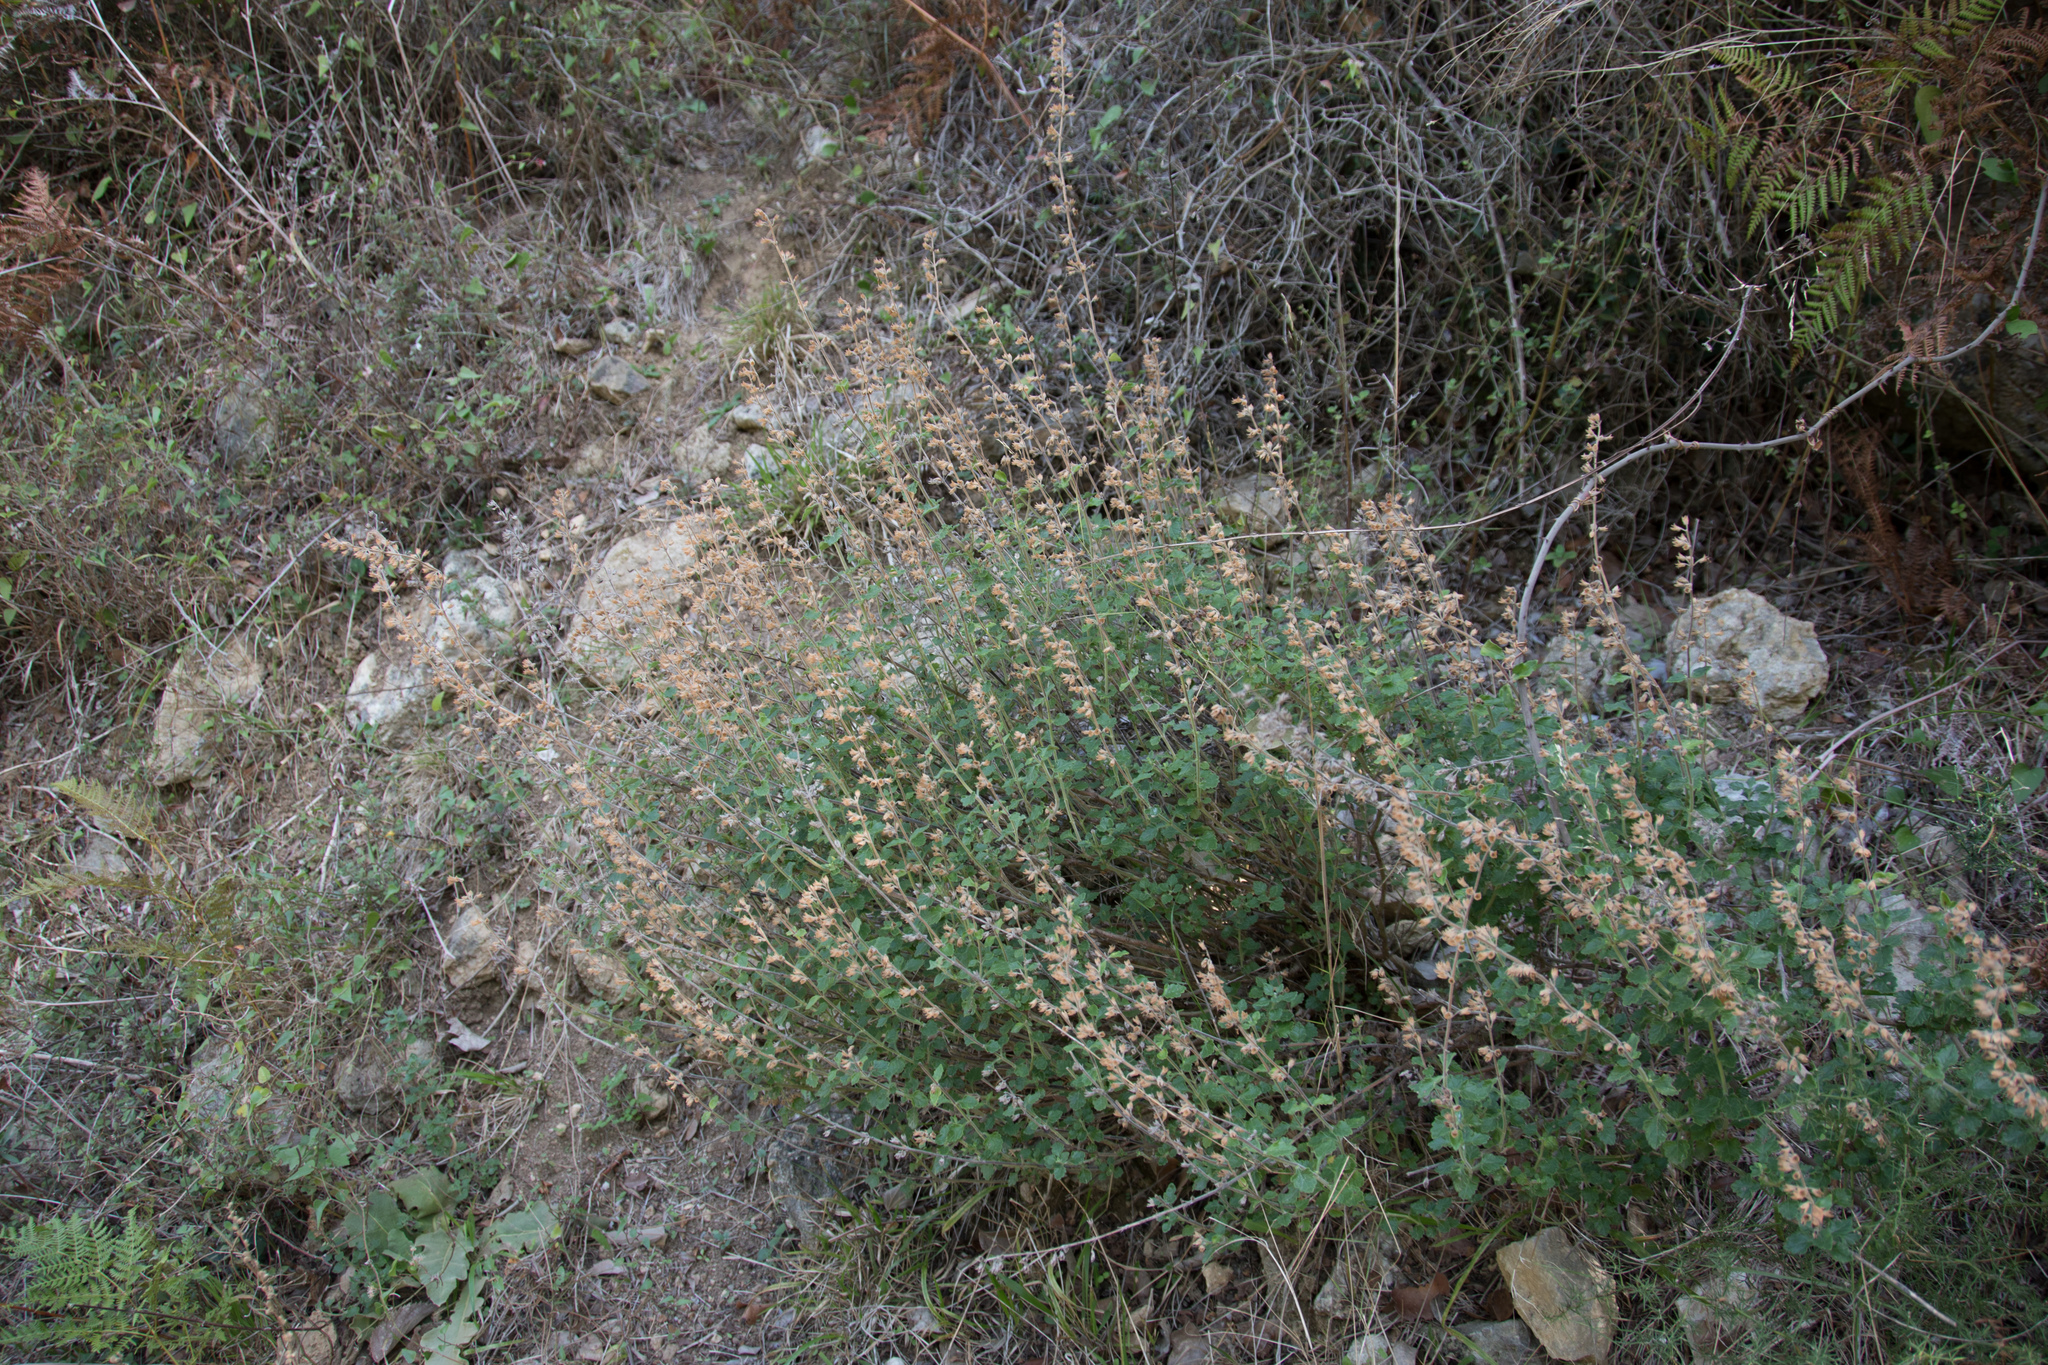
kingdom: Plantae
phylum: Tracheophyta
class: Magnoliopsida
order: Lamiales
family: Lamiaceae
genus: Teucrium
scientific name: Teucrium divaricatum
